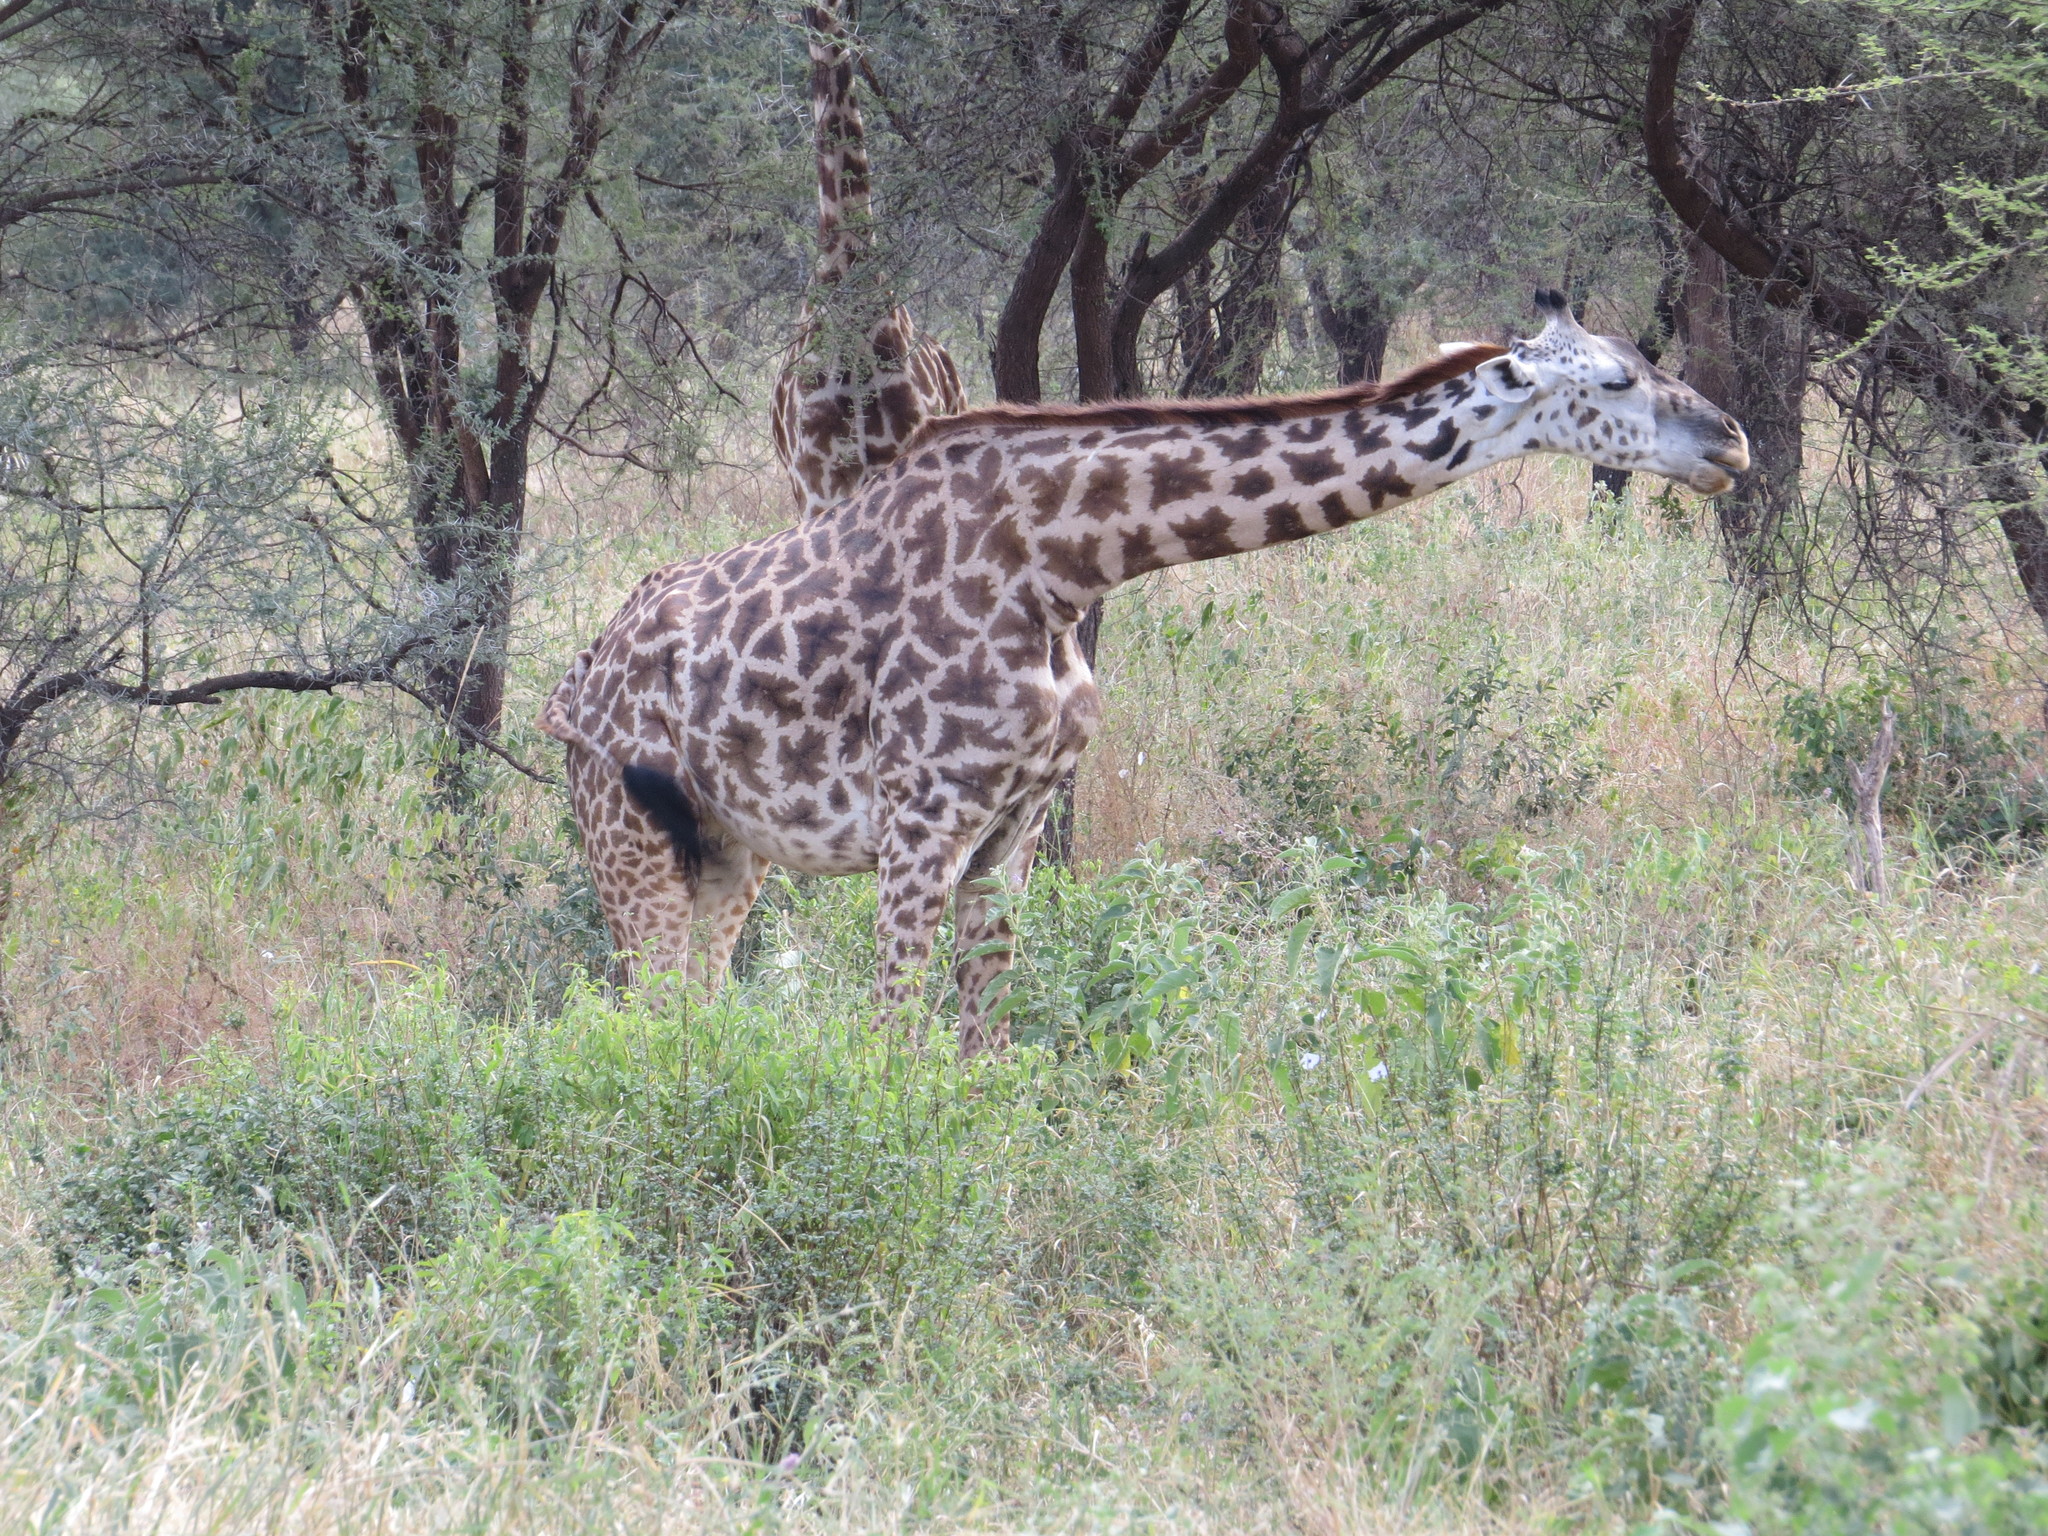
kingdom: Animalia
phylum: Chordata
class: Mammalia
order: Artiodactyla
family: Giraffidae
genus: Giraffa
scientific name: Giraffa tippelskirchi
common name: Masai giraffe
